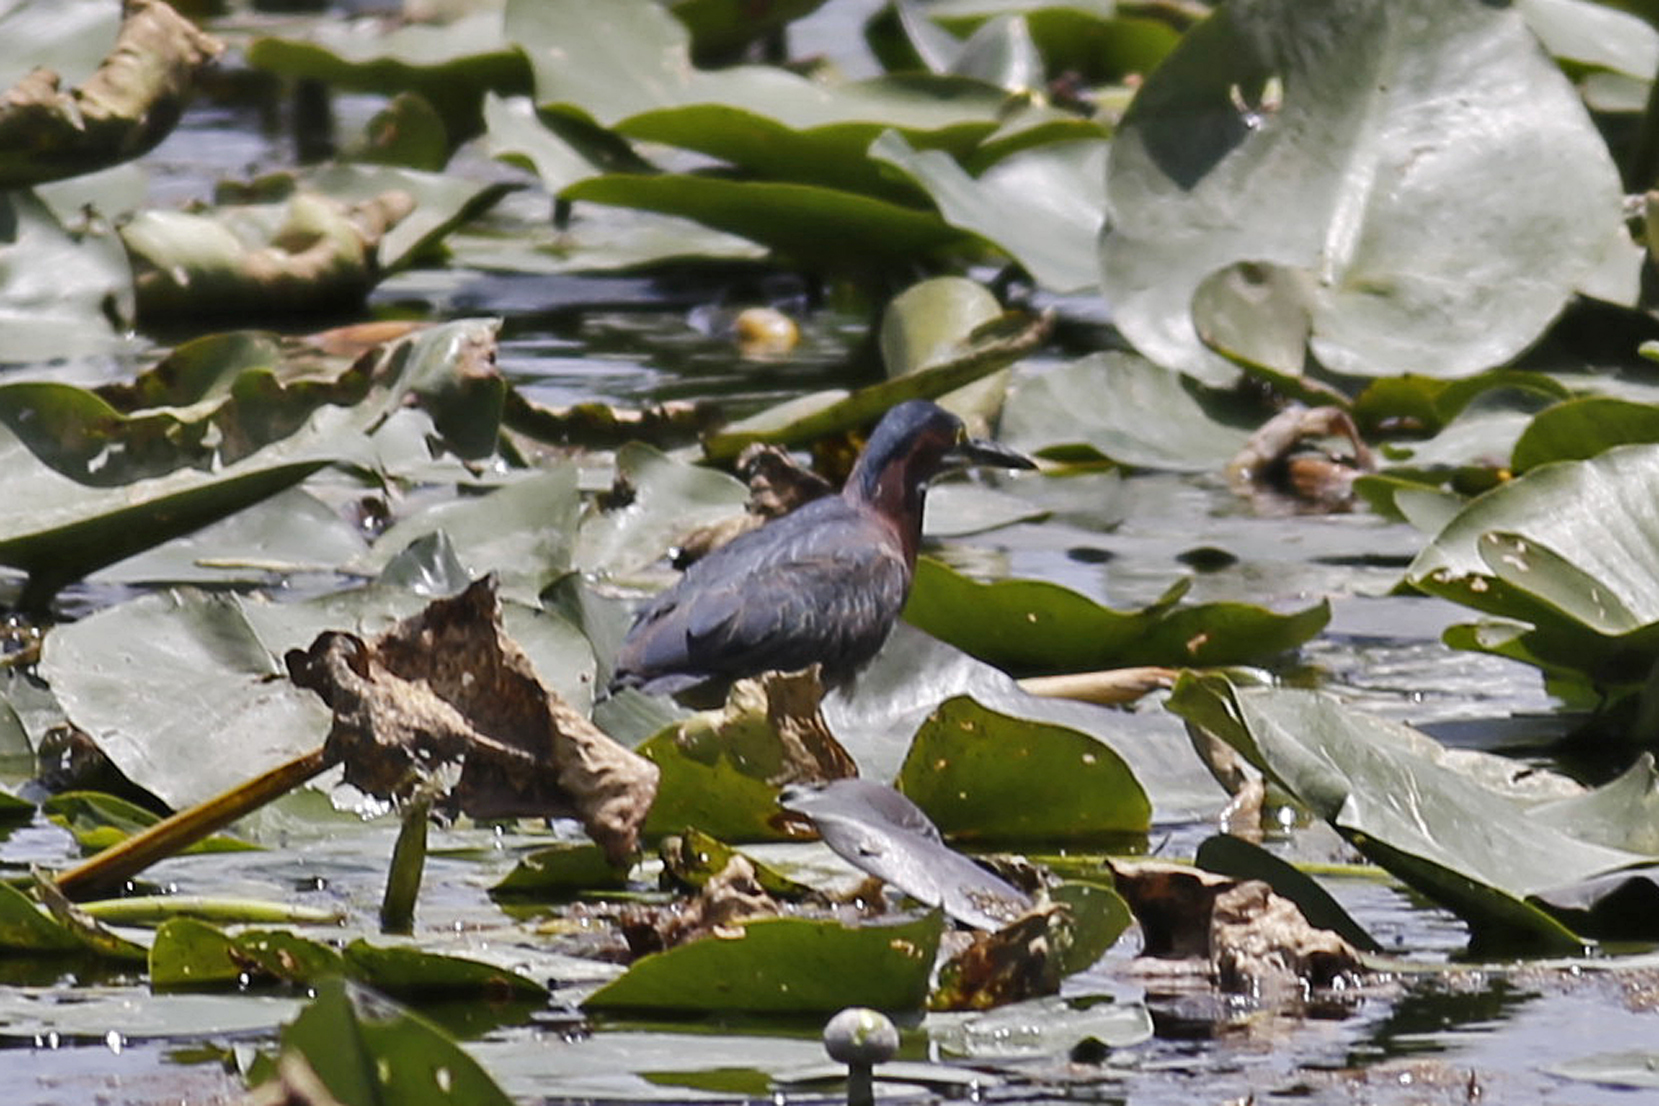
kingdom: Animalia
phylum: Chordata
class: Aves
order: Pelecaniformes
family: Ardeidae
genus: Butorides
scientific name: Butorides virescens
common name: Green heron
